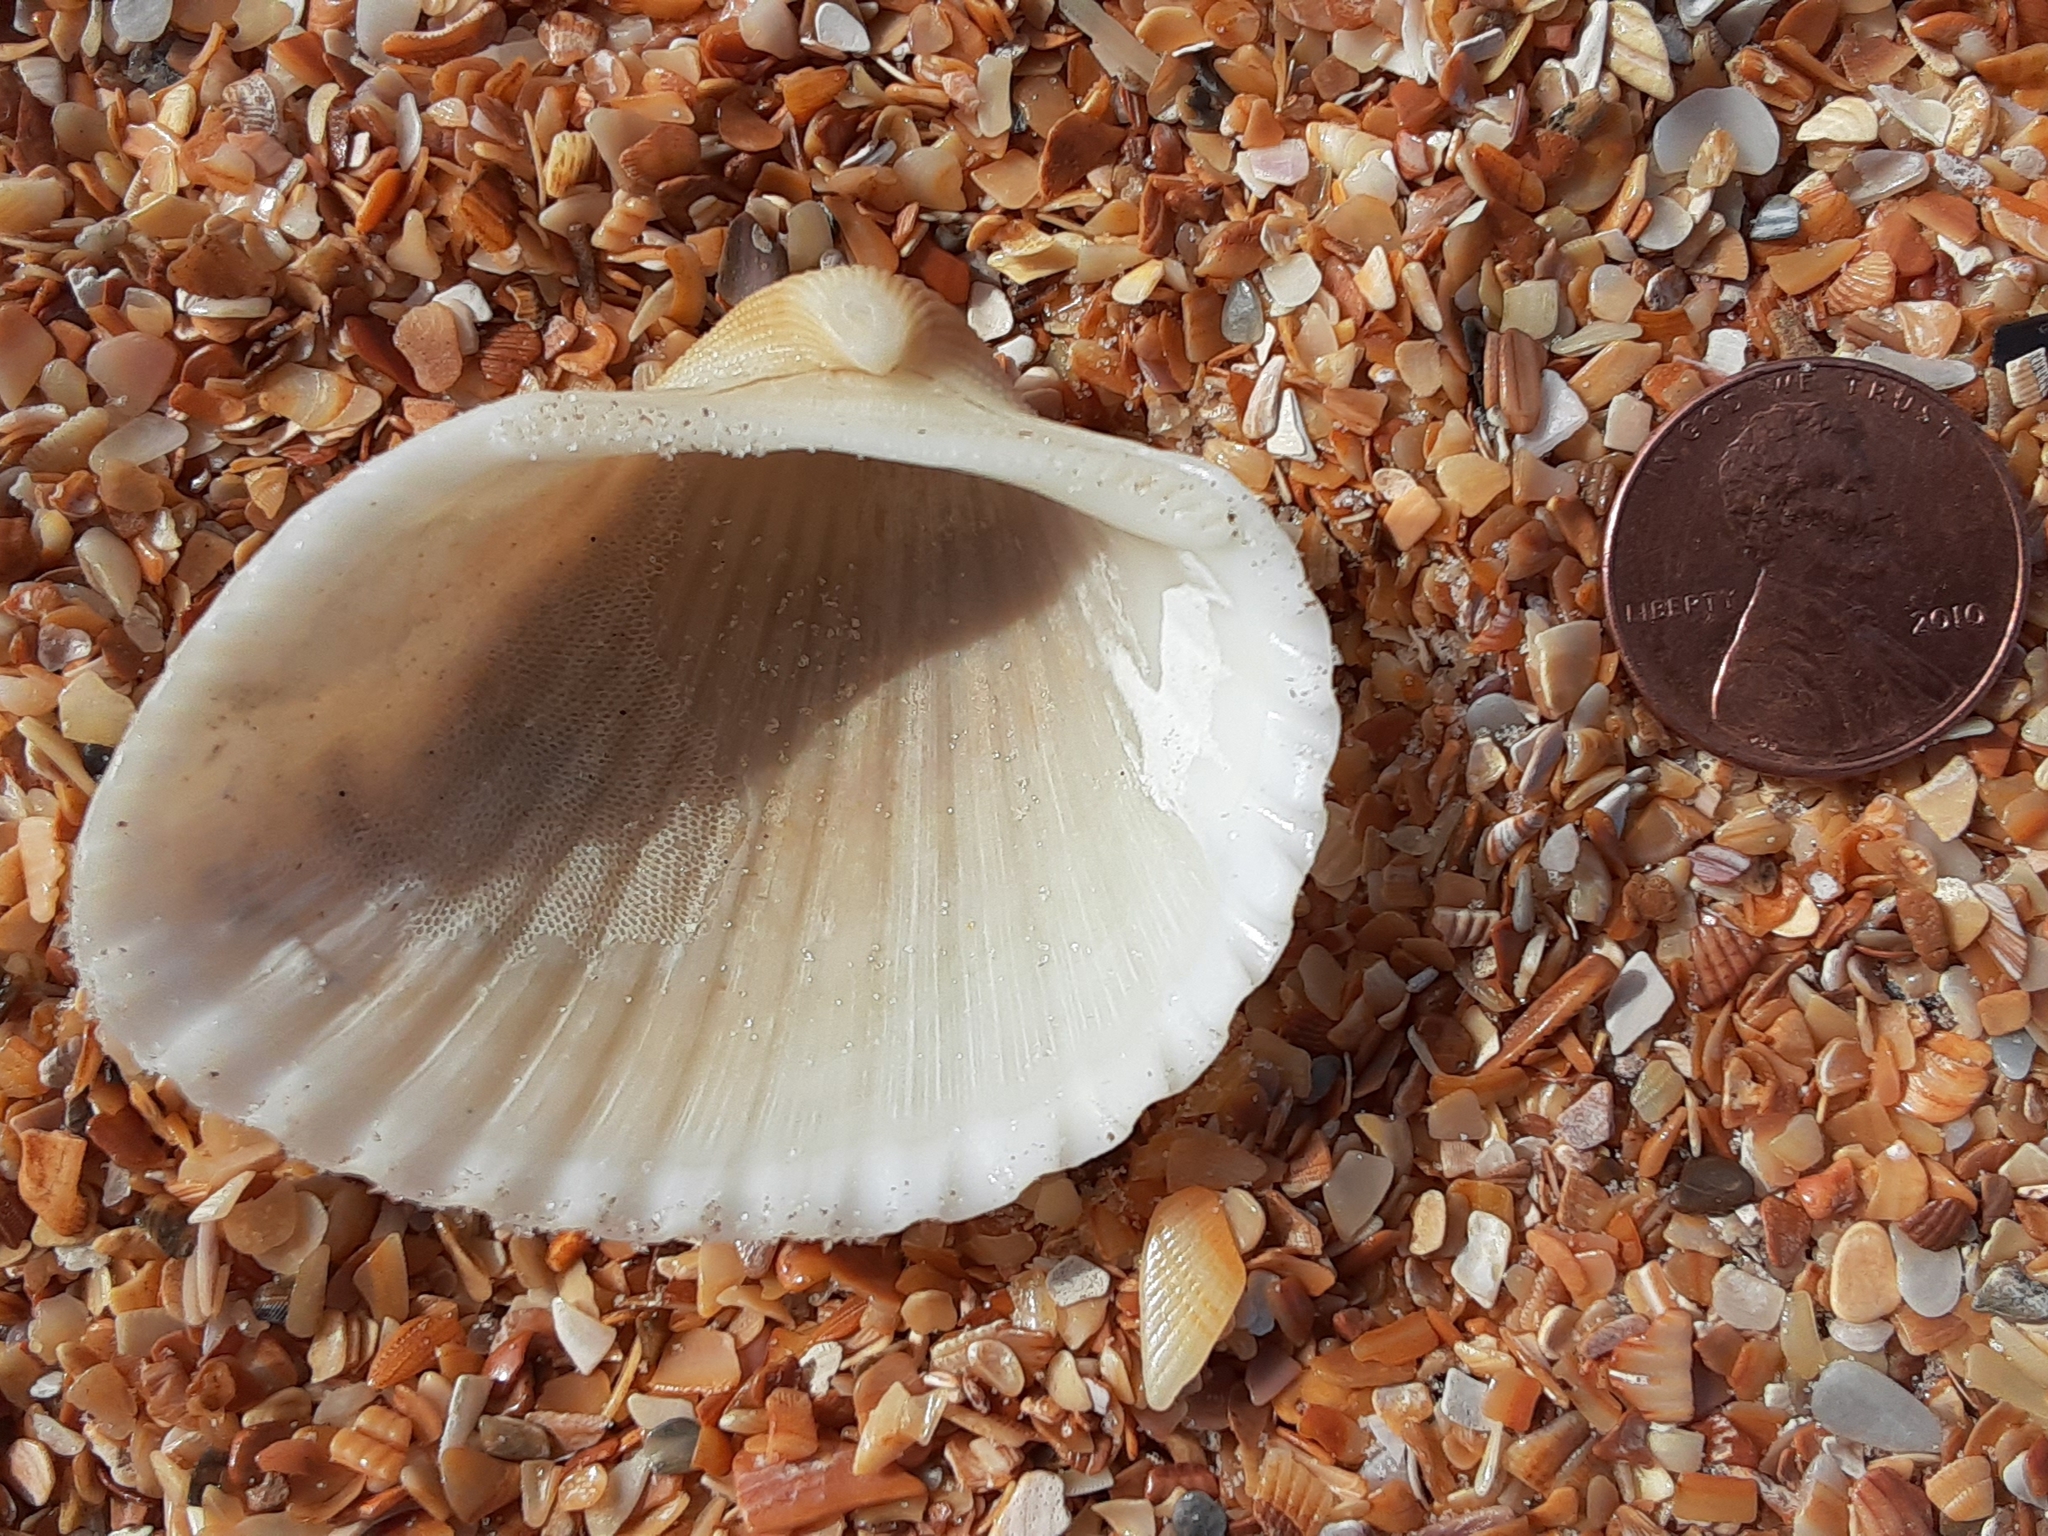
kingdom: Animalia
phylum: Mollusca
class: Bivalvia
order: Arcida
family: Arcidae
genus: Anadara
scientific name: Anadara brasiliana
